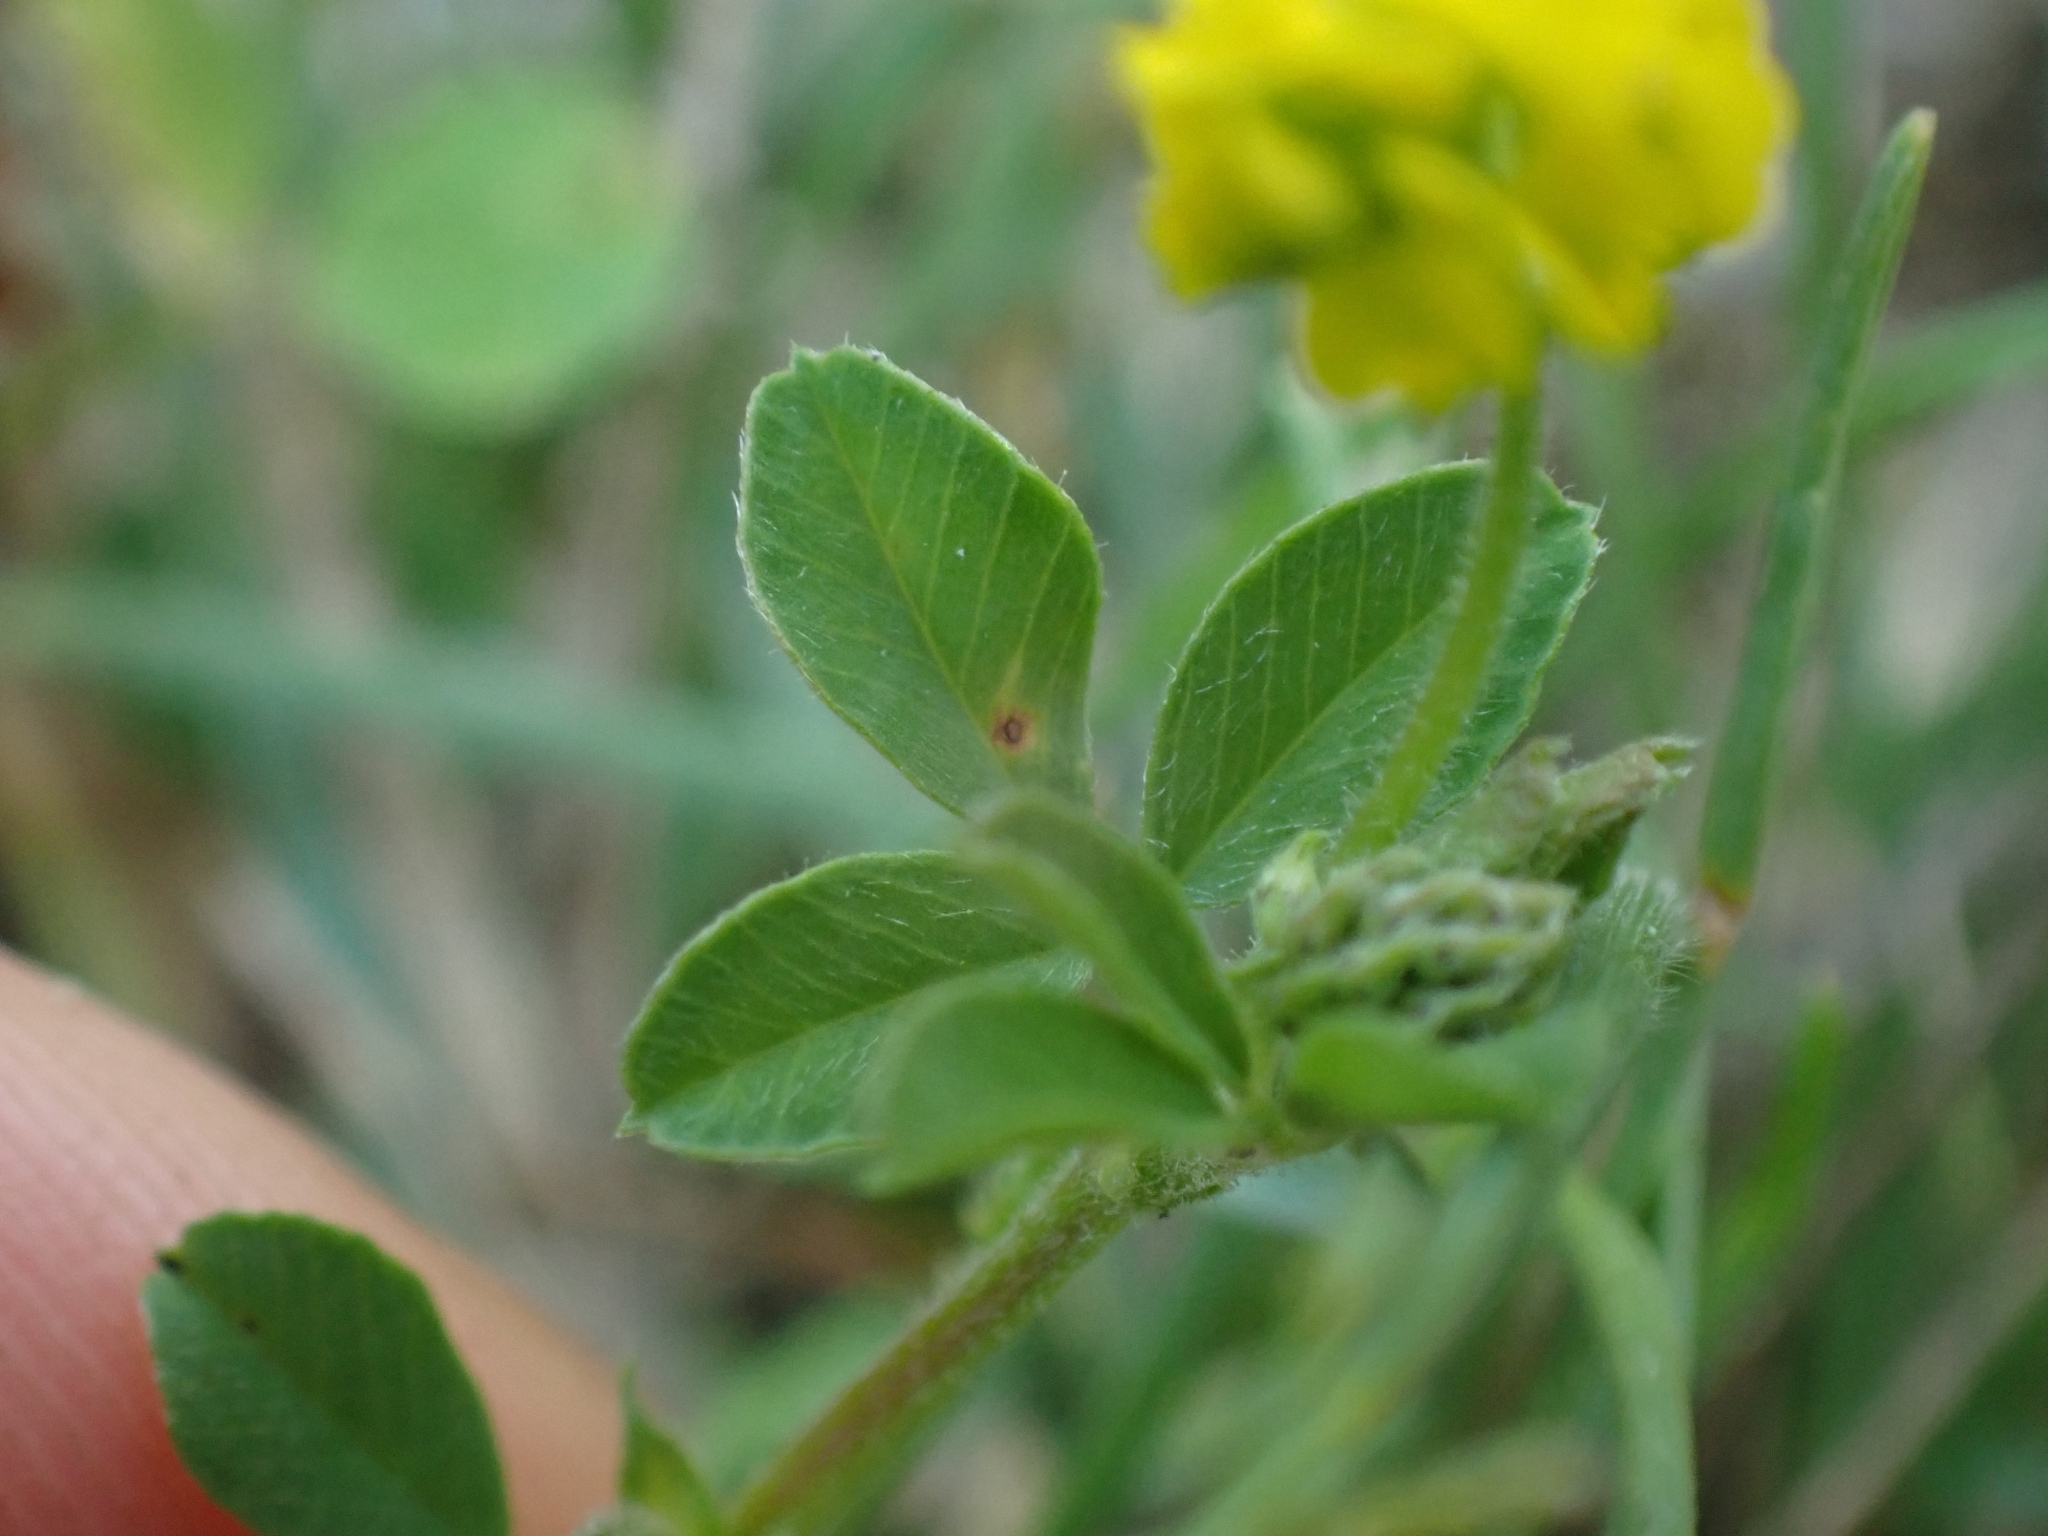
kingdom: Plantae
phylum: Tracheophyta
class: Magnoliopsida
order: Fabales
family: Fabaceae
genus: Medicago
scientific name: Medicago lupulina
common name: Black medick
